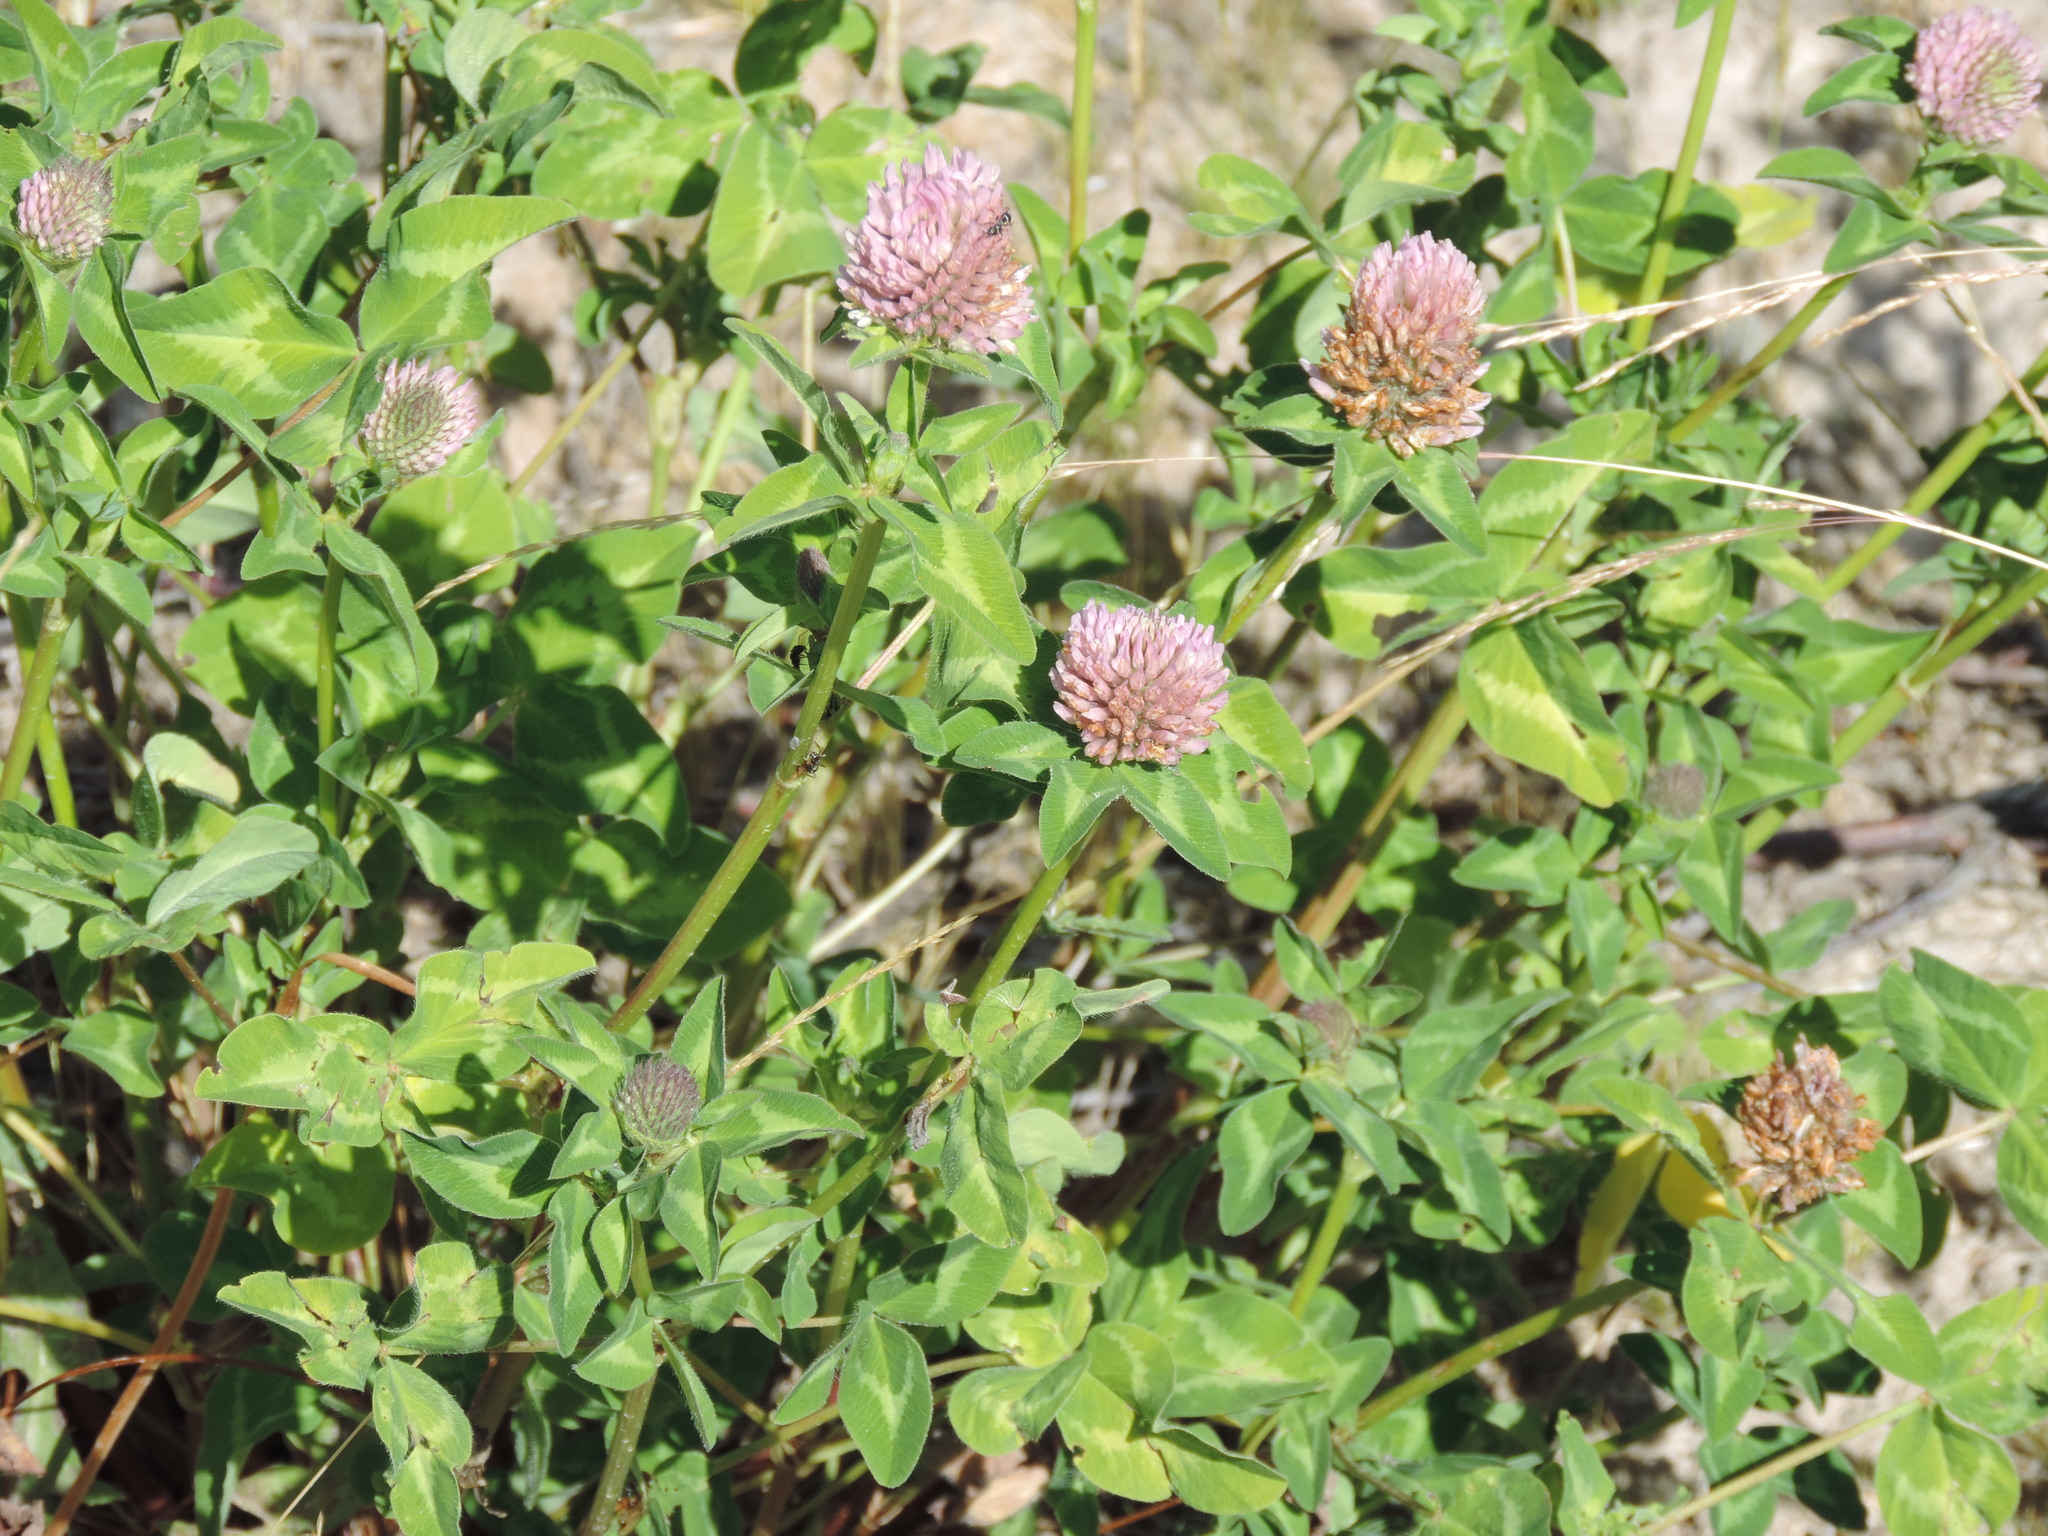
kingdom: Plantae
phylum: Tracheophyta
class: Magnoliopsida
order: Fabales
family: Fabaceae
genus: Trifolium
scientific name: Trifolium pratense
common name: Red clover
